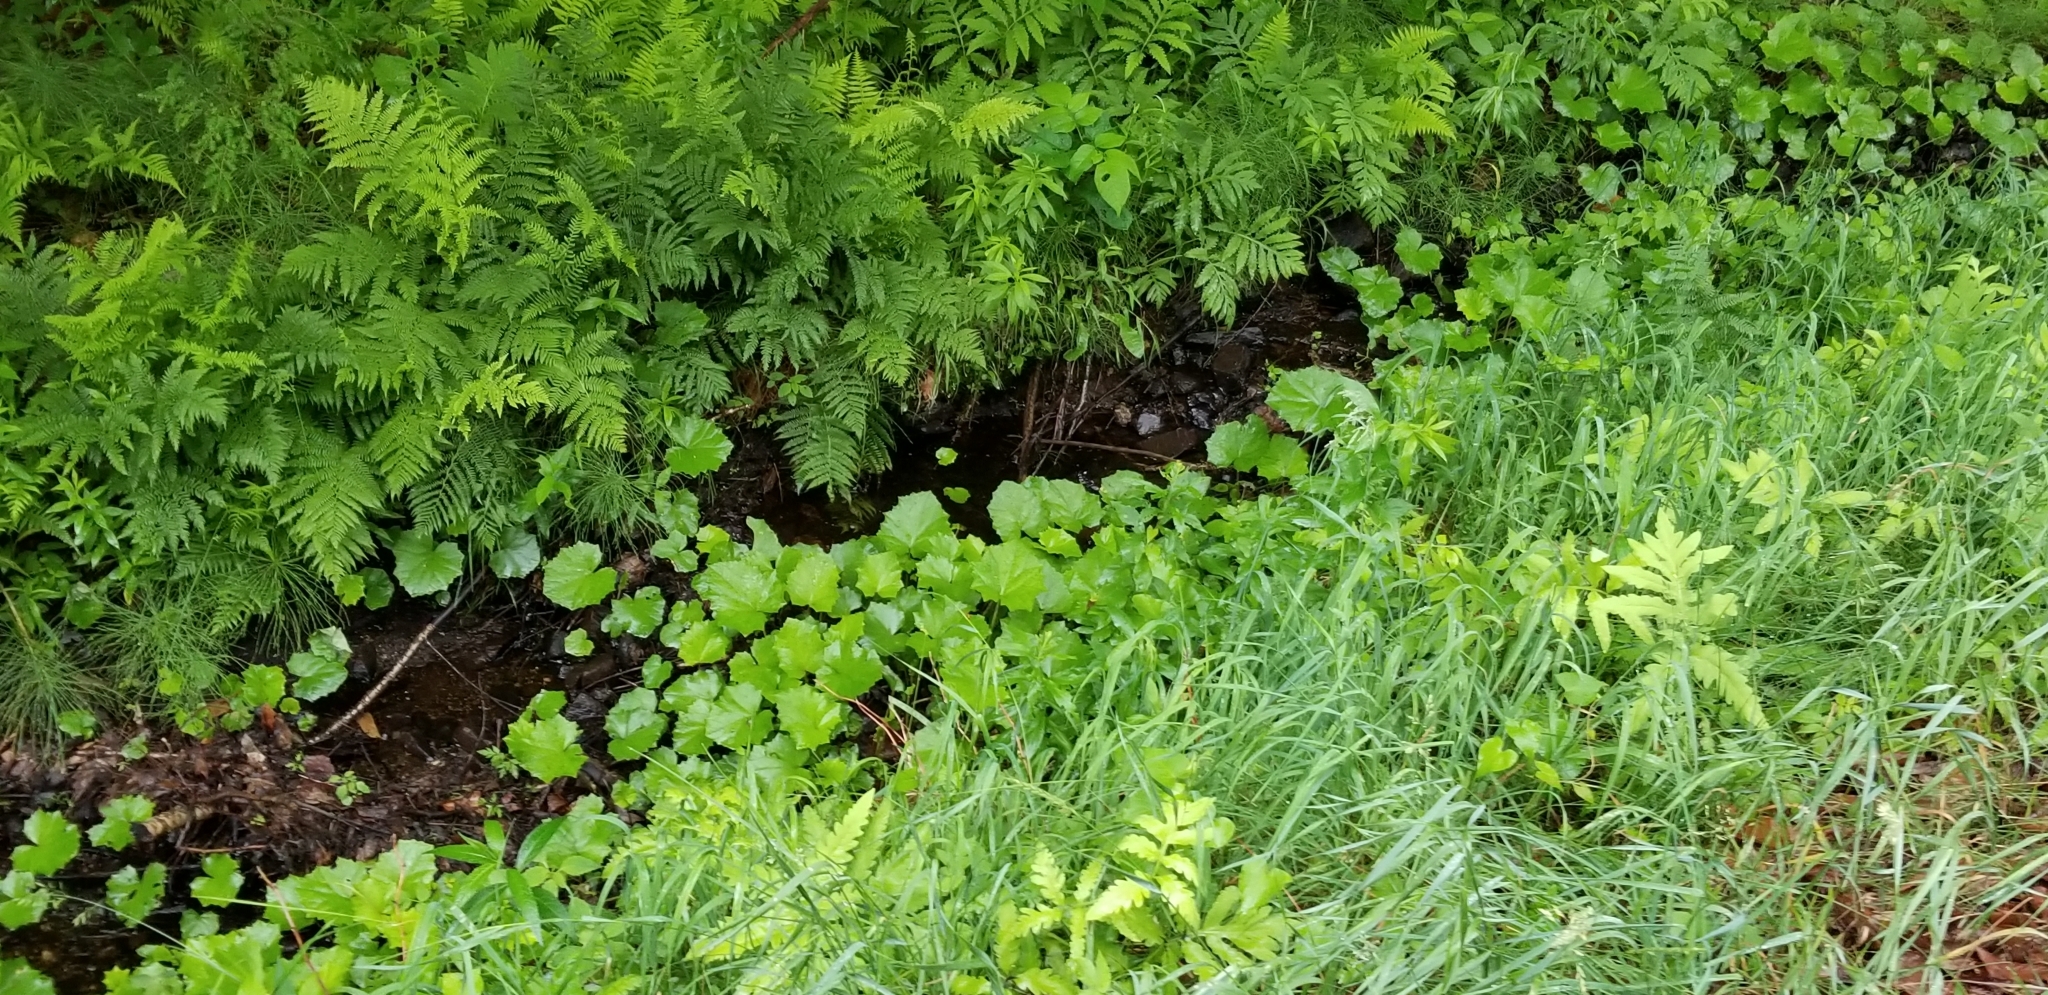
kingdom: Plantae
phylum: Tracheophyta
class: Magnoliopsida
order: Asterales
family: Asteraceae
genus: Tussilago
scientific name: Tussilago farfara
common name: Coltsfoot
